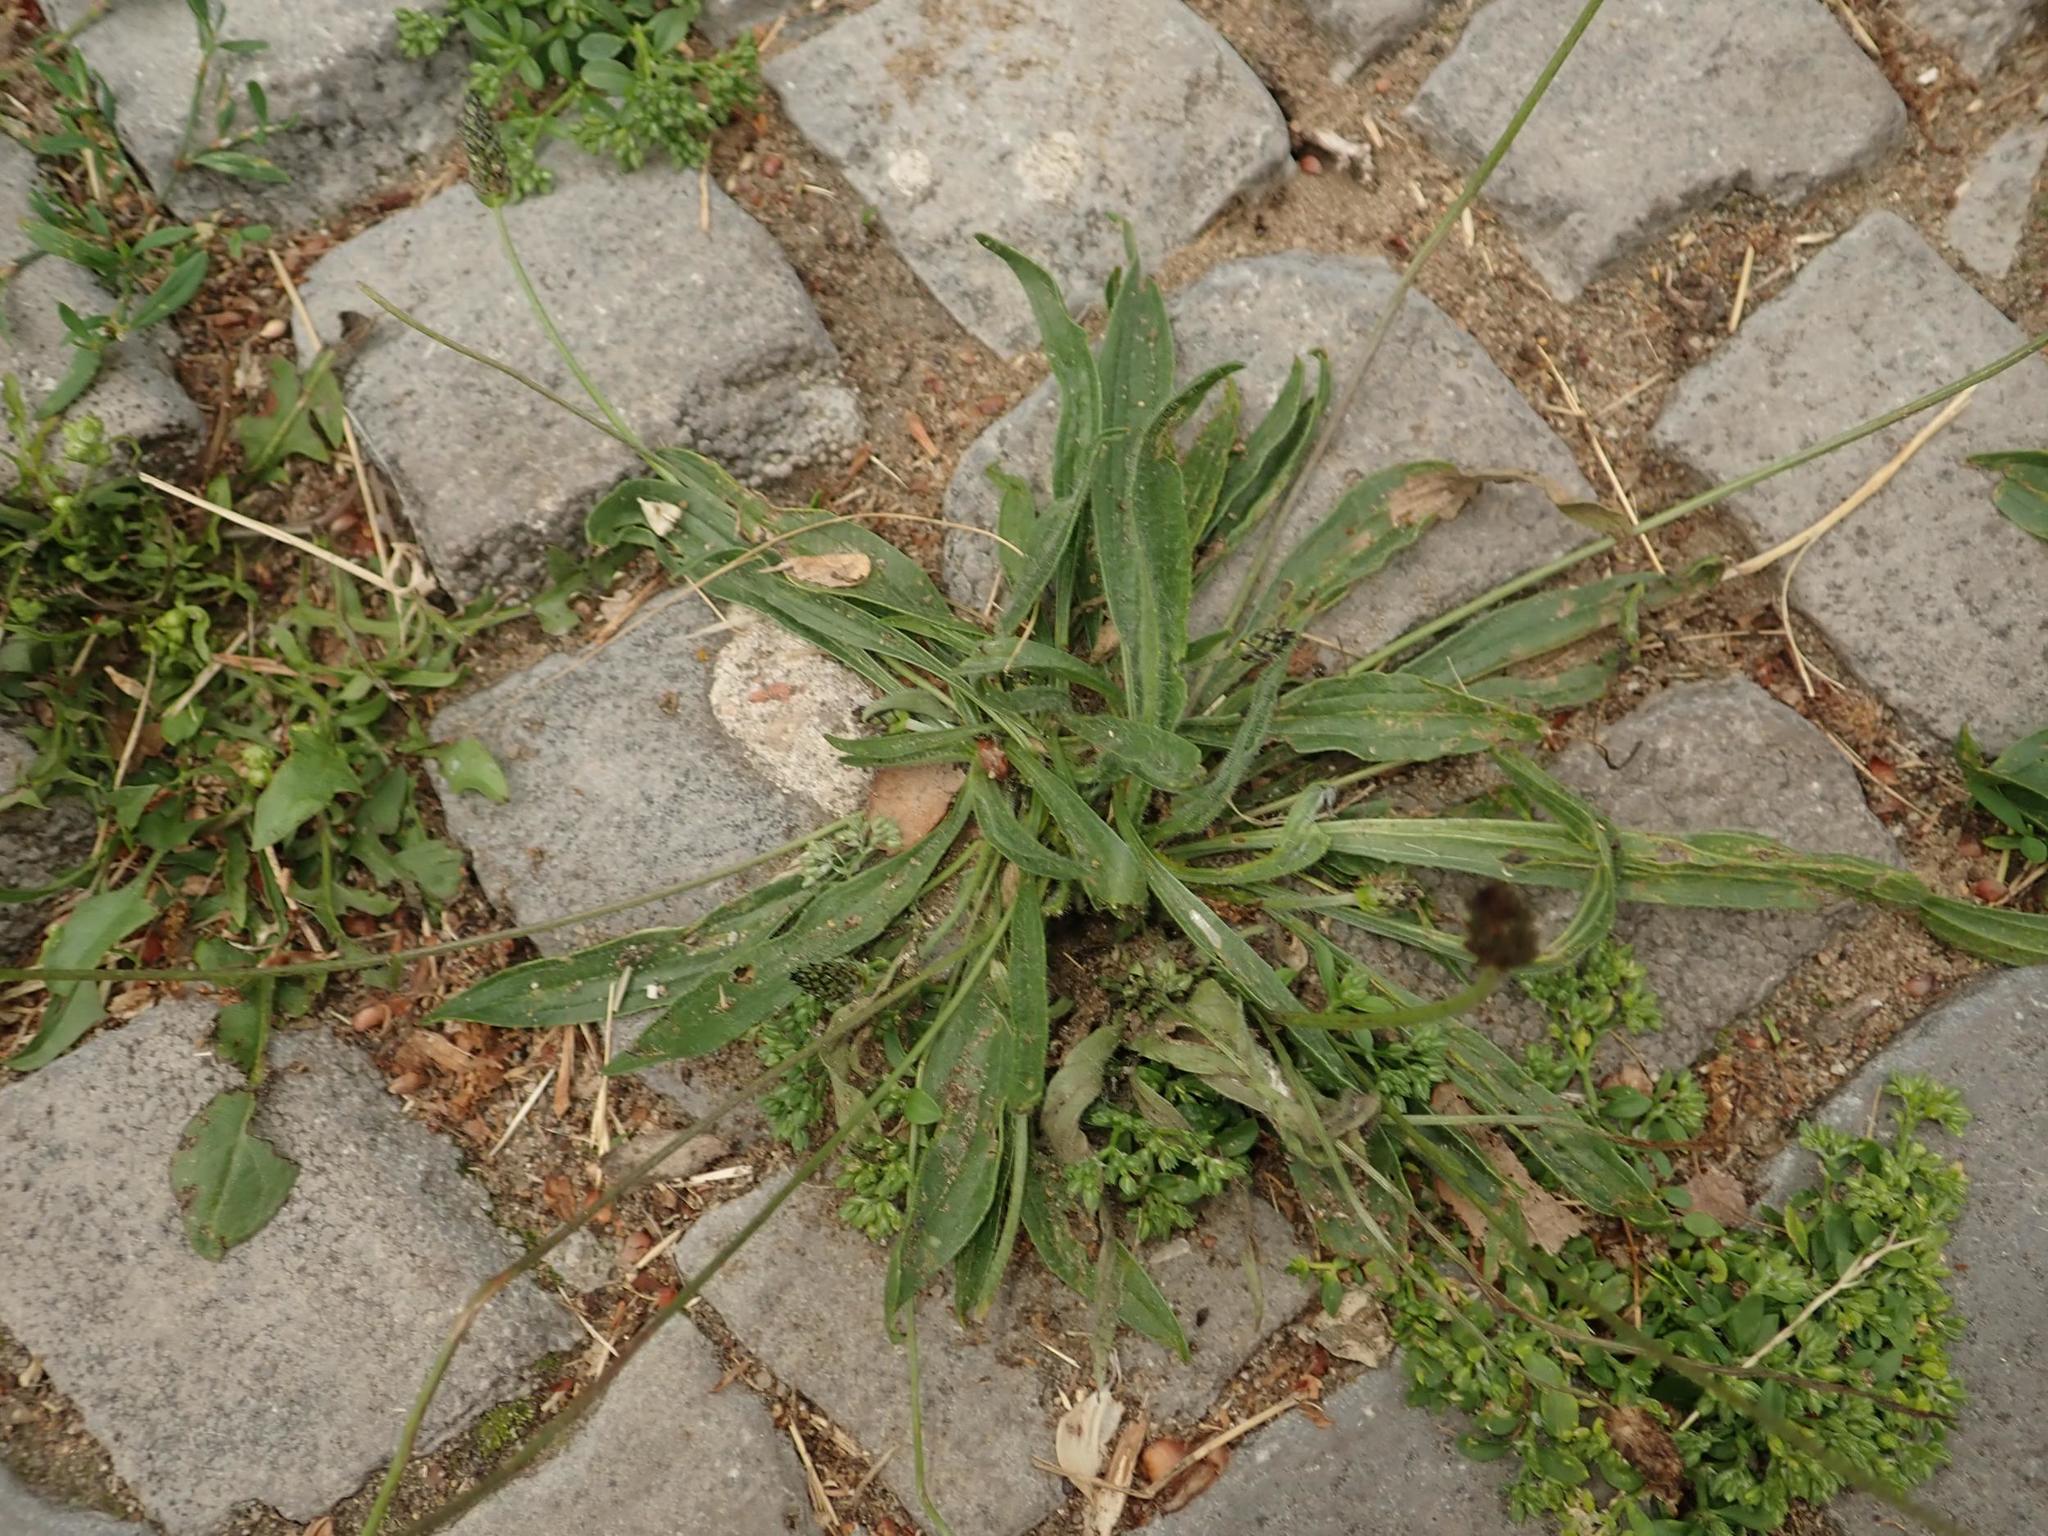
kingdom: Plantae
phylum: Tracheophyta
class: Magnoliopsida
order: Lamiales
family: Plantaginaceae
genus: Plantago
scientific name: Plantago lanceolata
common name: Ribwort plantain
